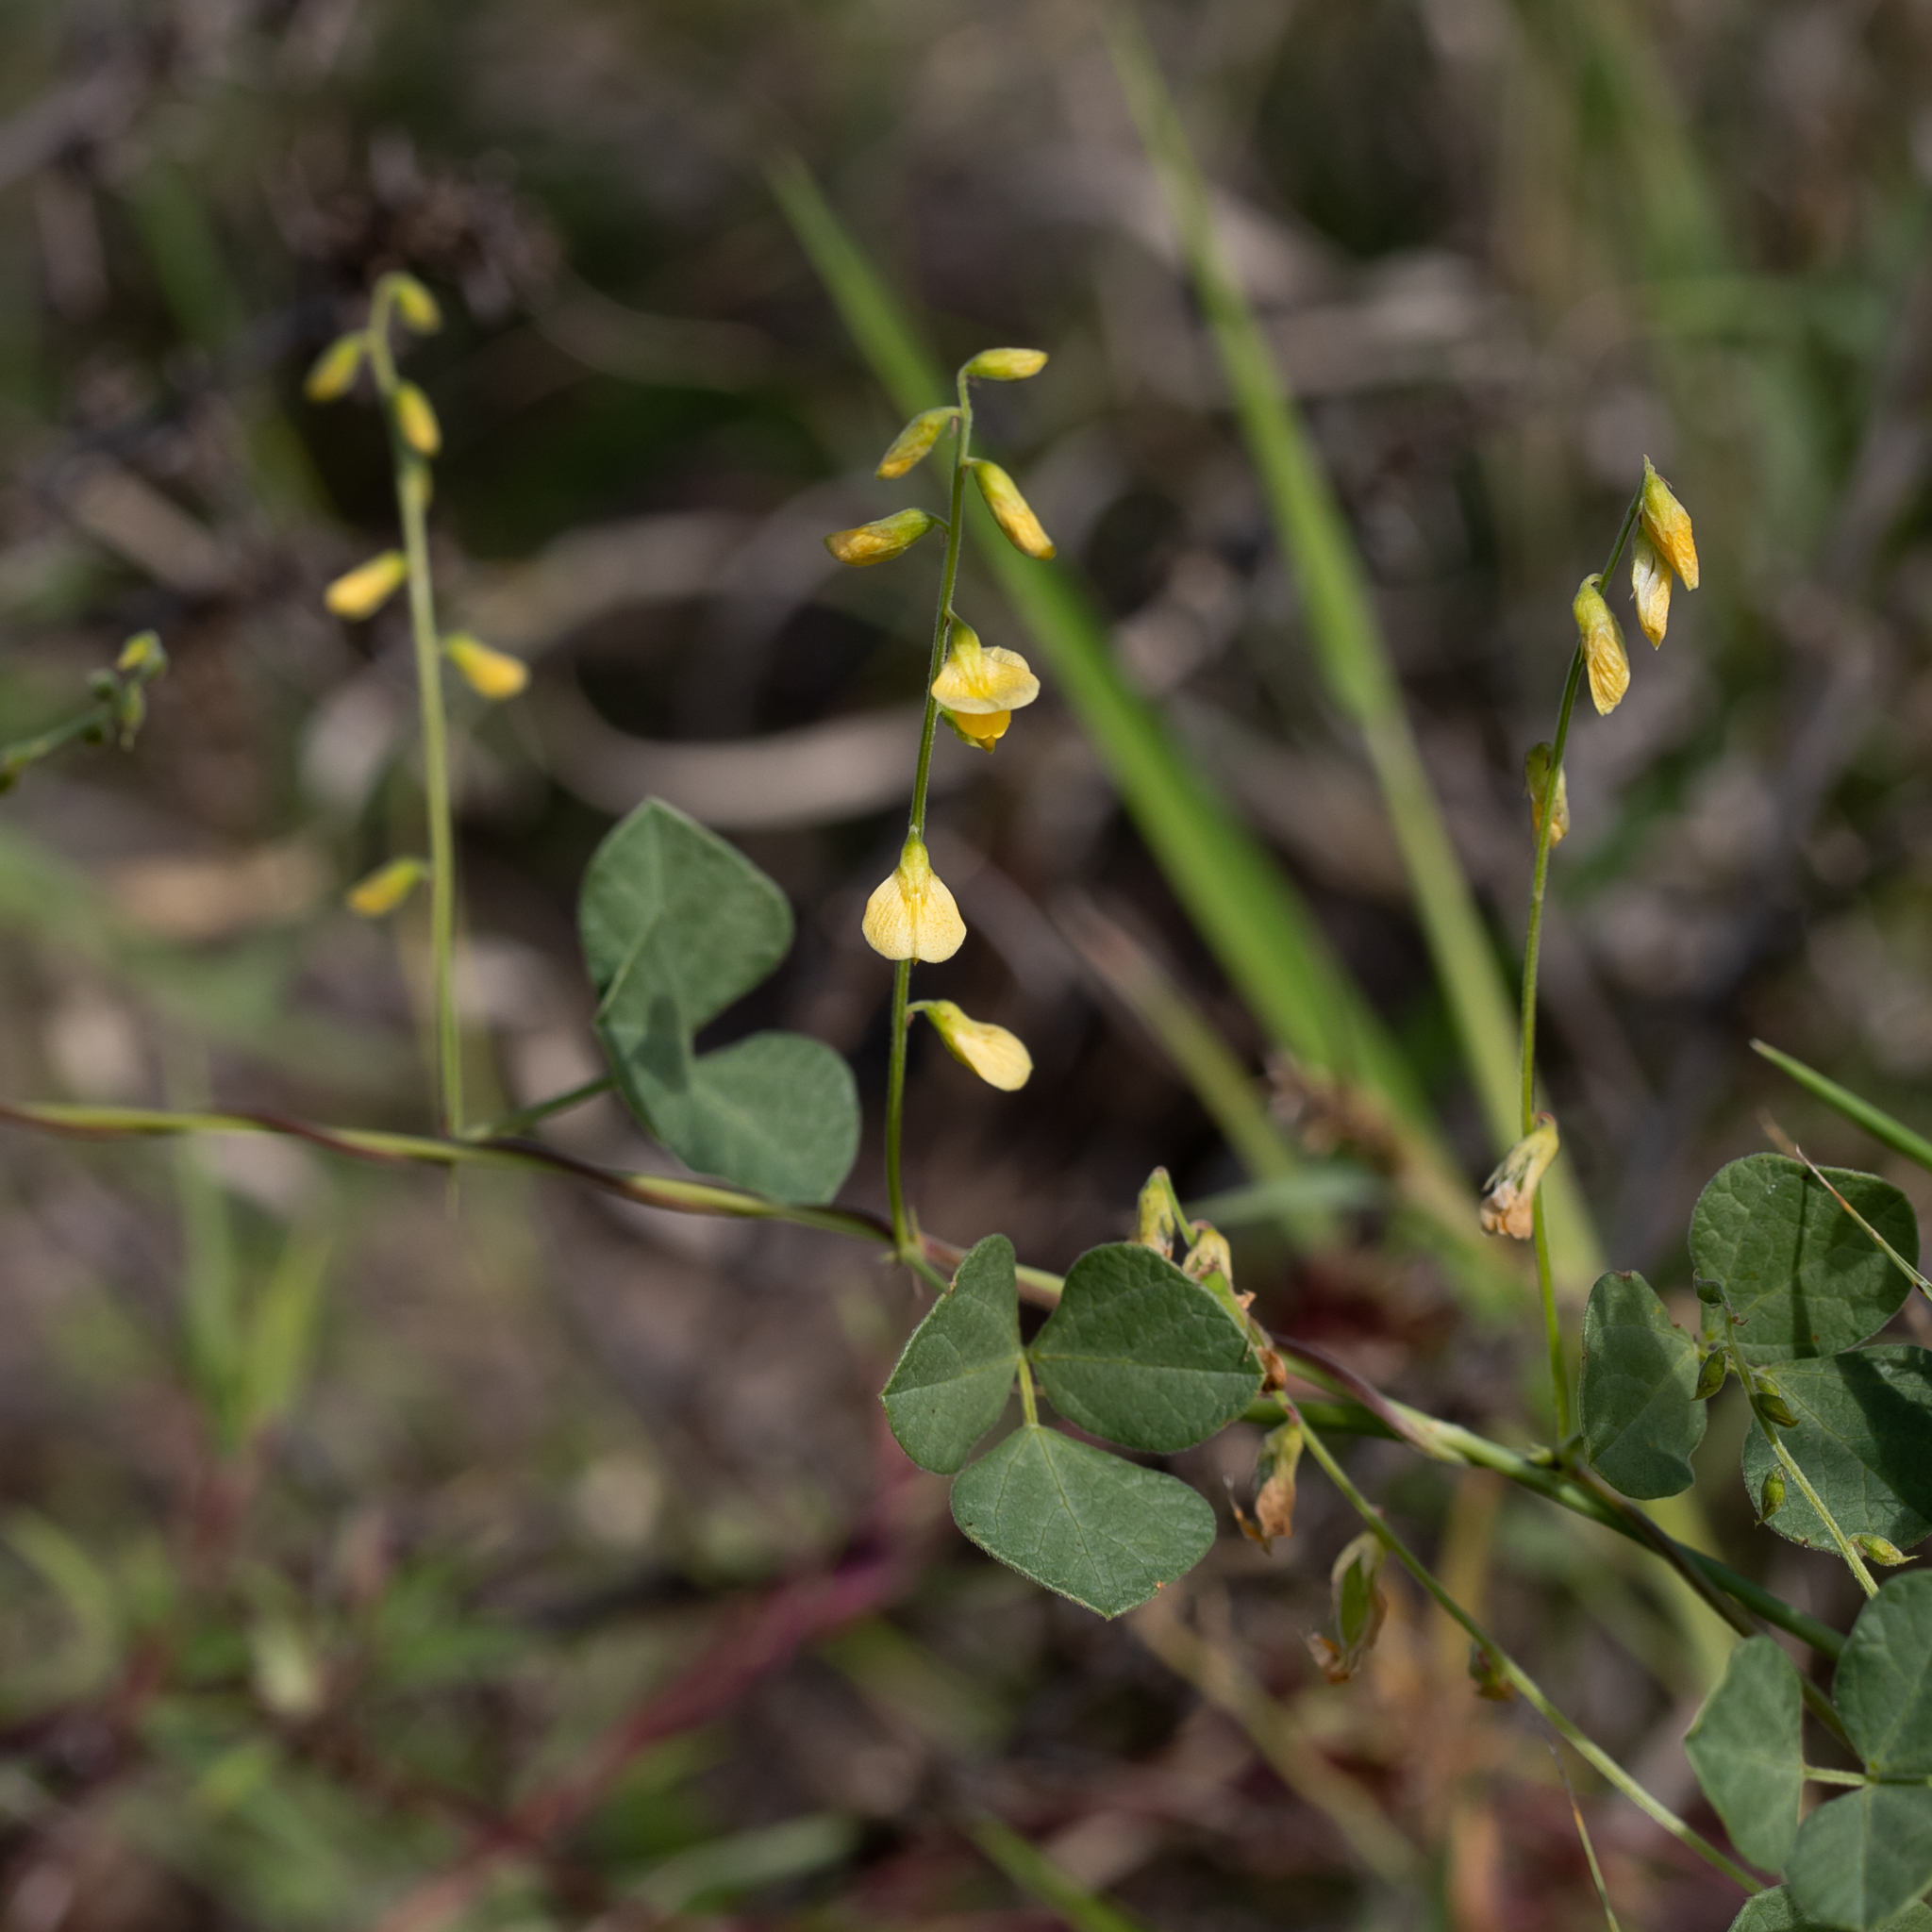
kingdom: Plantae
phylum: Tracheophyta
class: Magnoliopsida
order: Fabales
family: Fabaceae
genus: Rhynchosia
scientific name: Rhynchosia minima
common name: Least snoutbean
